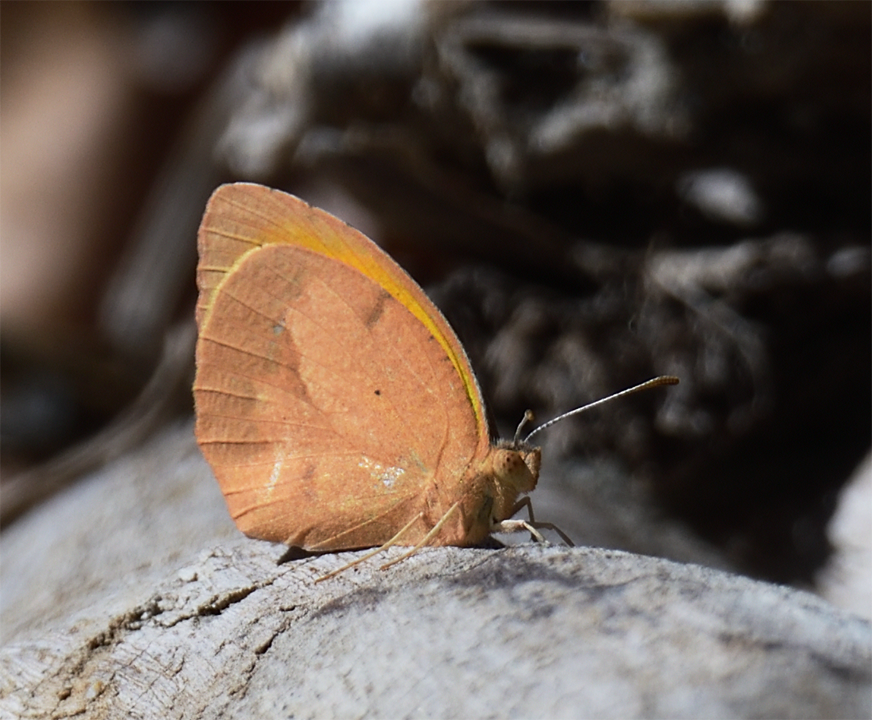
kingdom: Animalia
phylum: Arthropoda
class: Insecta
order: Lepidoptera
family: Pieridae
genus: Abaeis
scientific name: Abaeis nicippe
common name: Sleepy orange
